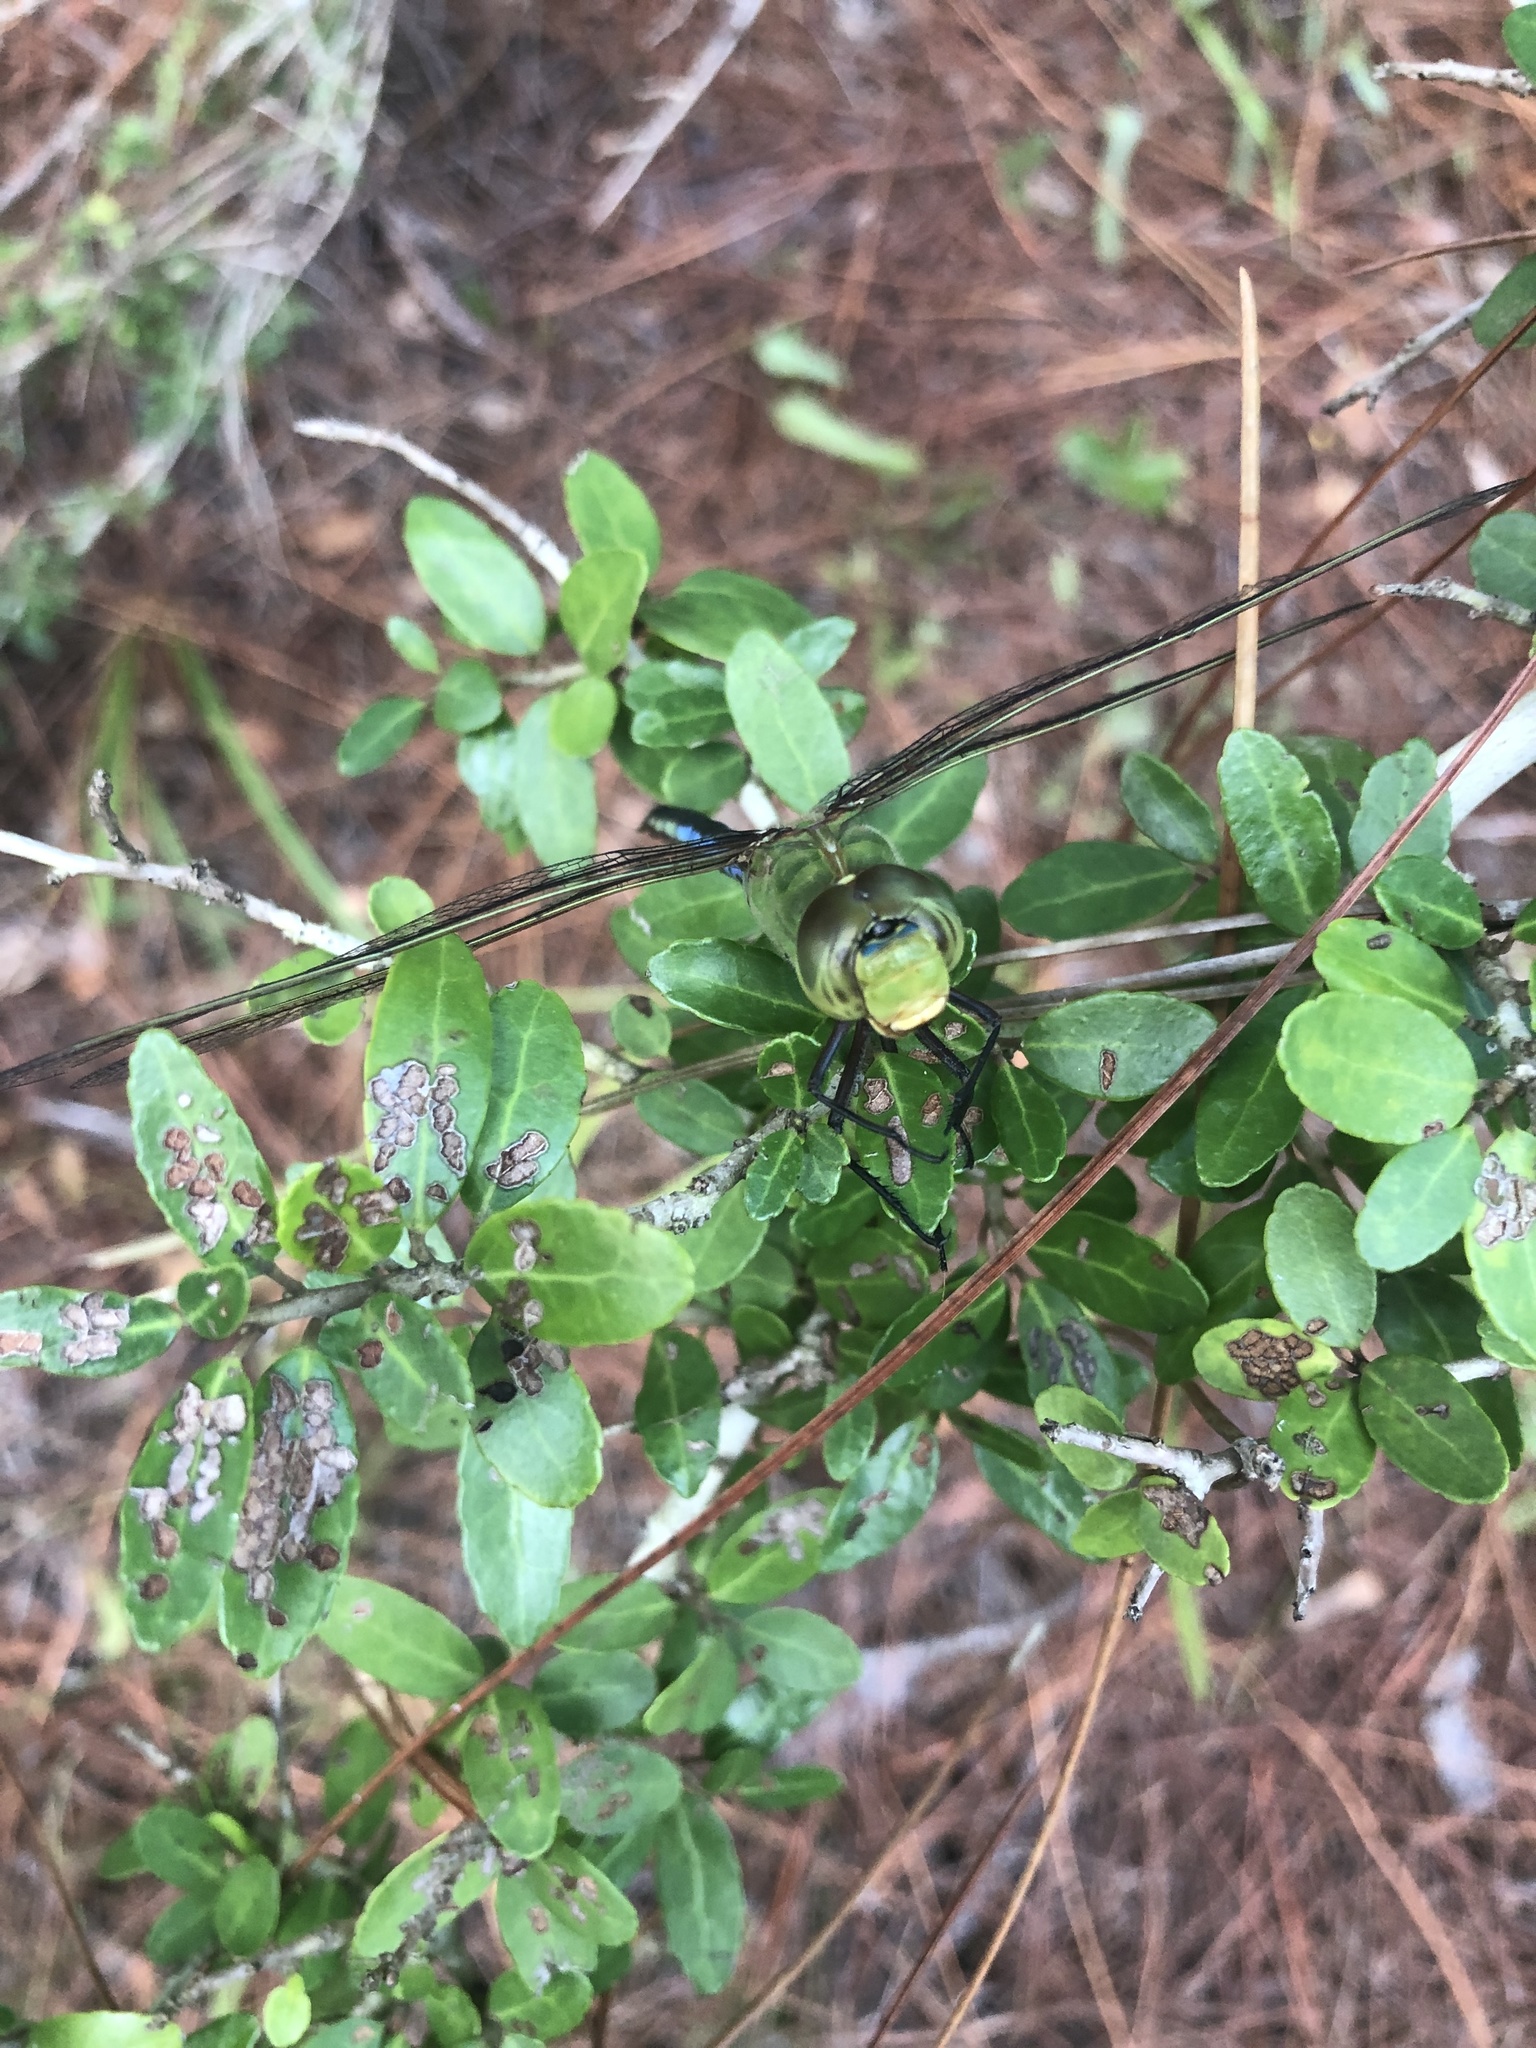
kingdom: Animalia
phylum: Arthropoda
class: Insecta
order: Odonata
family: Aeshnidae
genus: Anax
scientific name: Anax junius
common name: Common green darner
